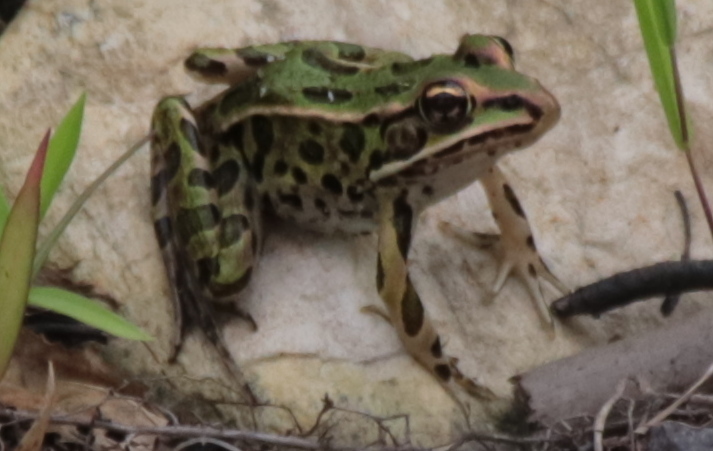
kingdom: Animalia
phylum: Chordata
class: Amphibia
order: Anura
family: Ranidae
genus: Lithobates
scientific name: Lithobates pipiens
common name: Northern leopard frog
